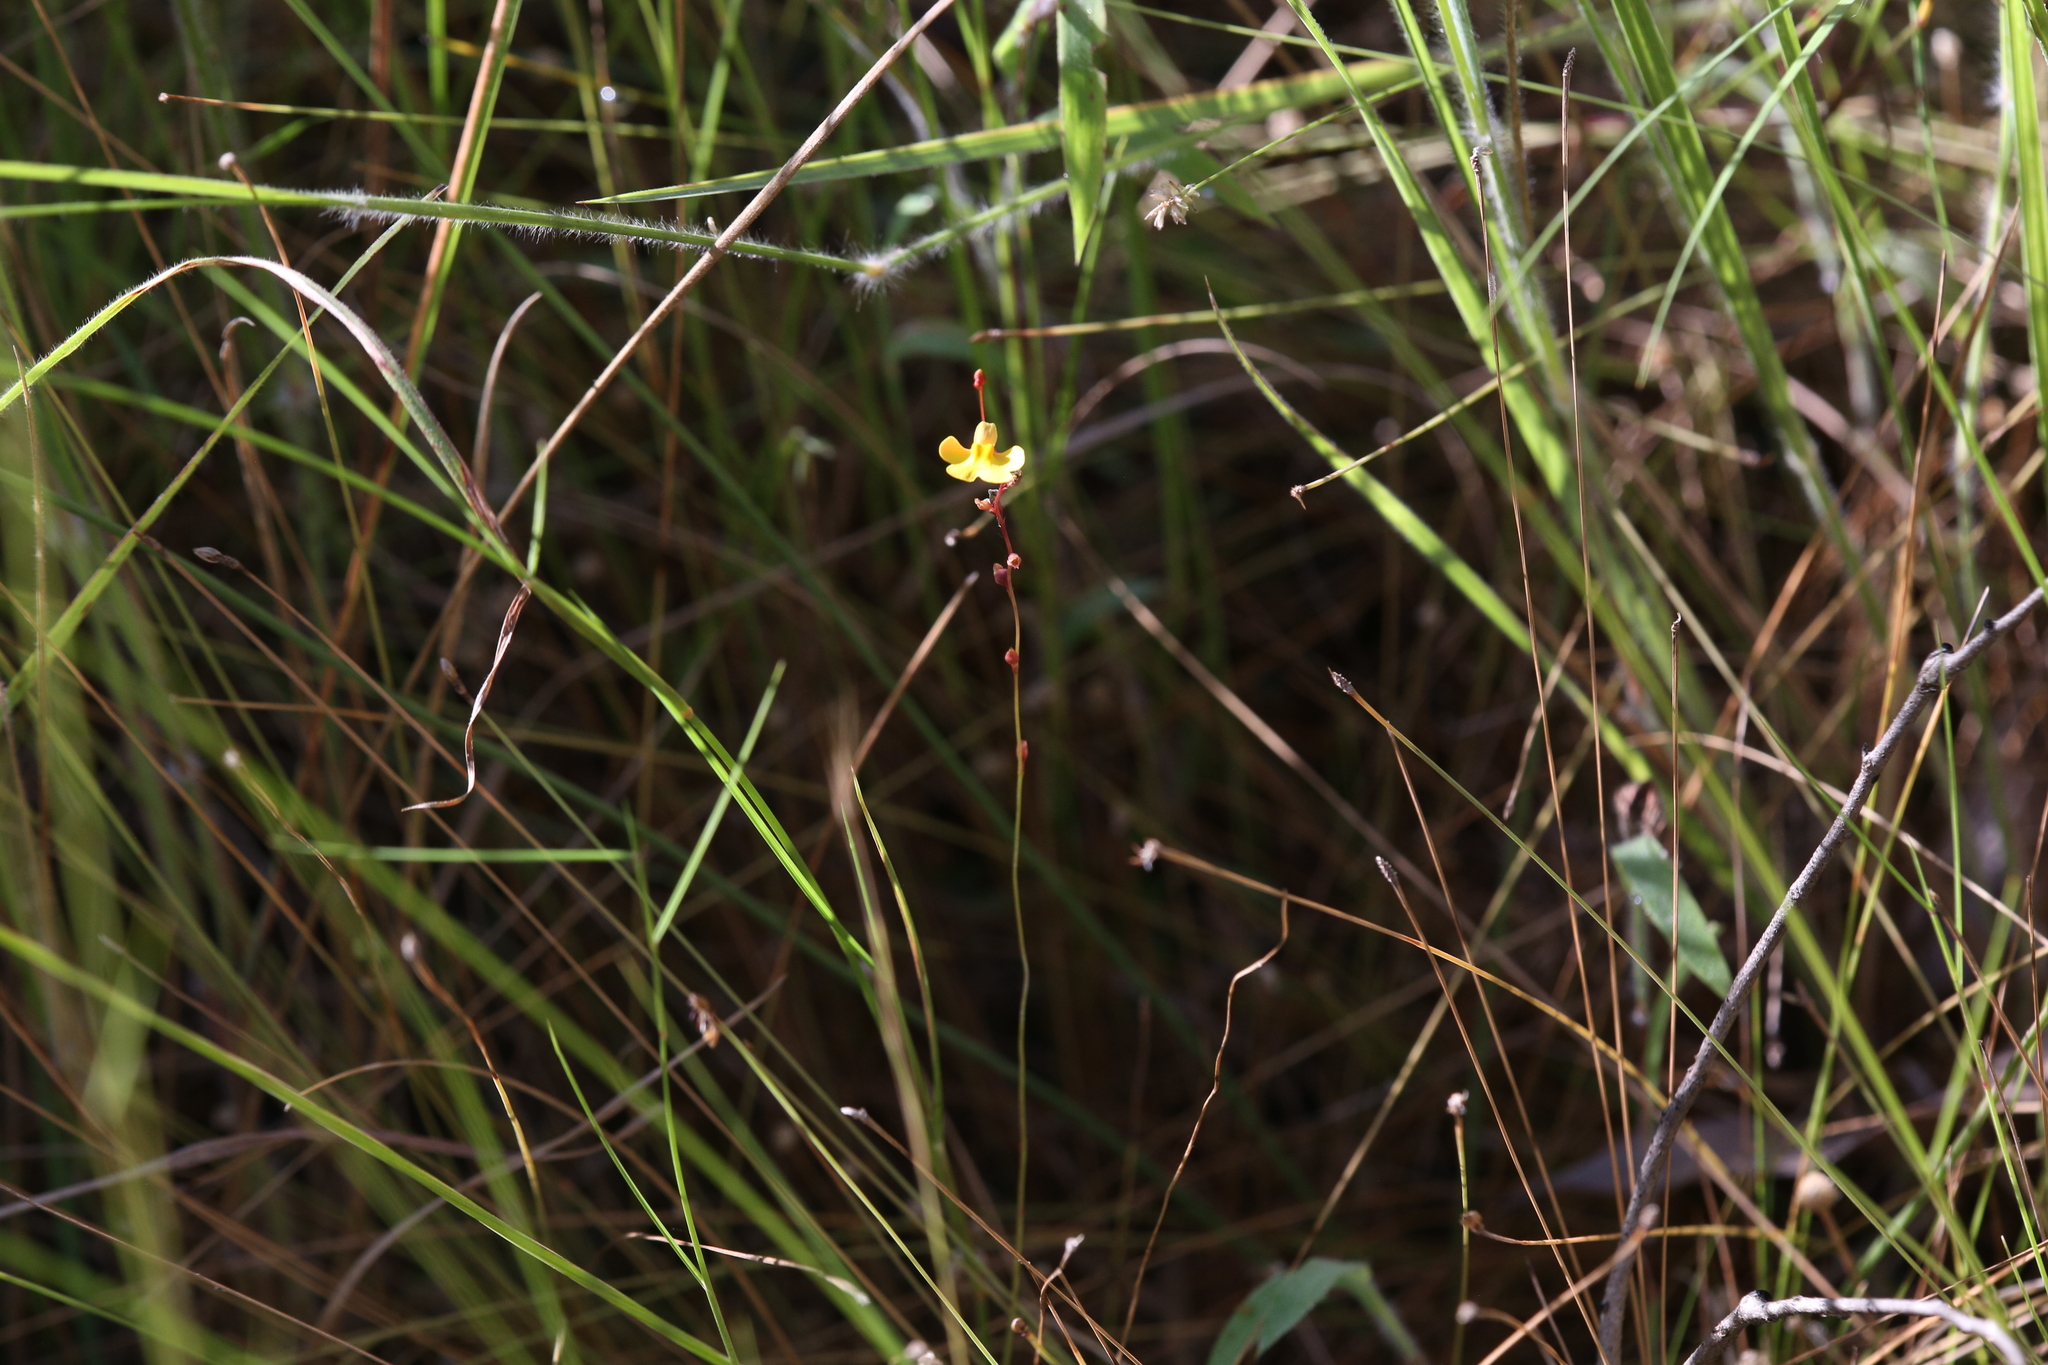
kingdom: Plantae
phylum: Tracheophyta
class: Magnoliopsida
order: Lamiales
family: Lentibulariaceae
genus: Utricularia
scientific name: Utricularia chrysantha
